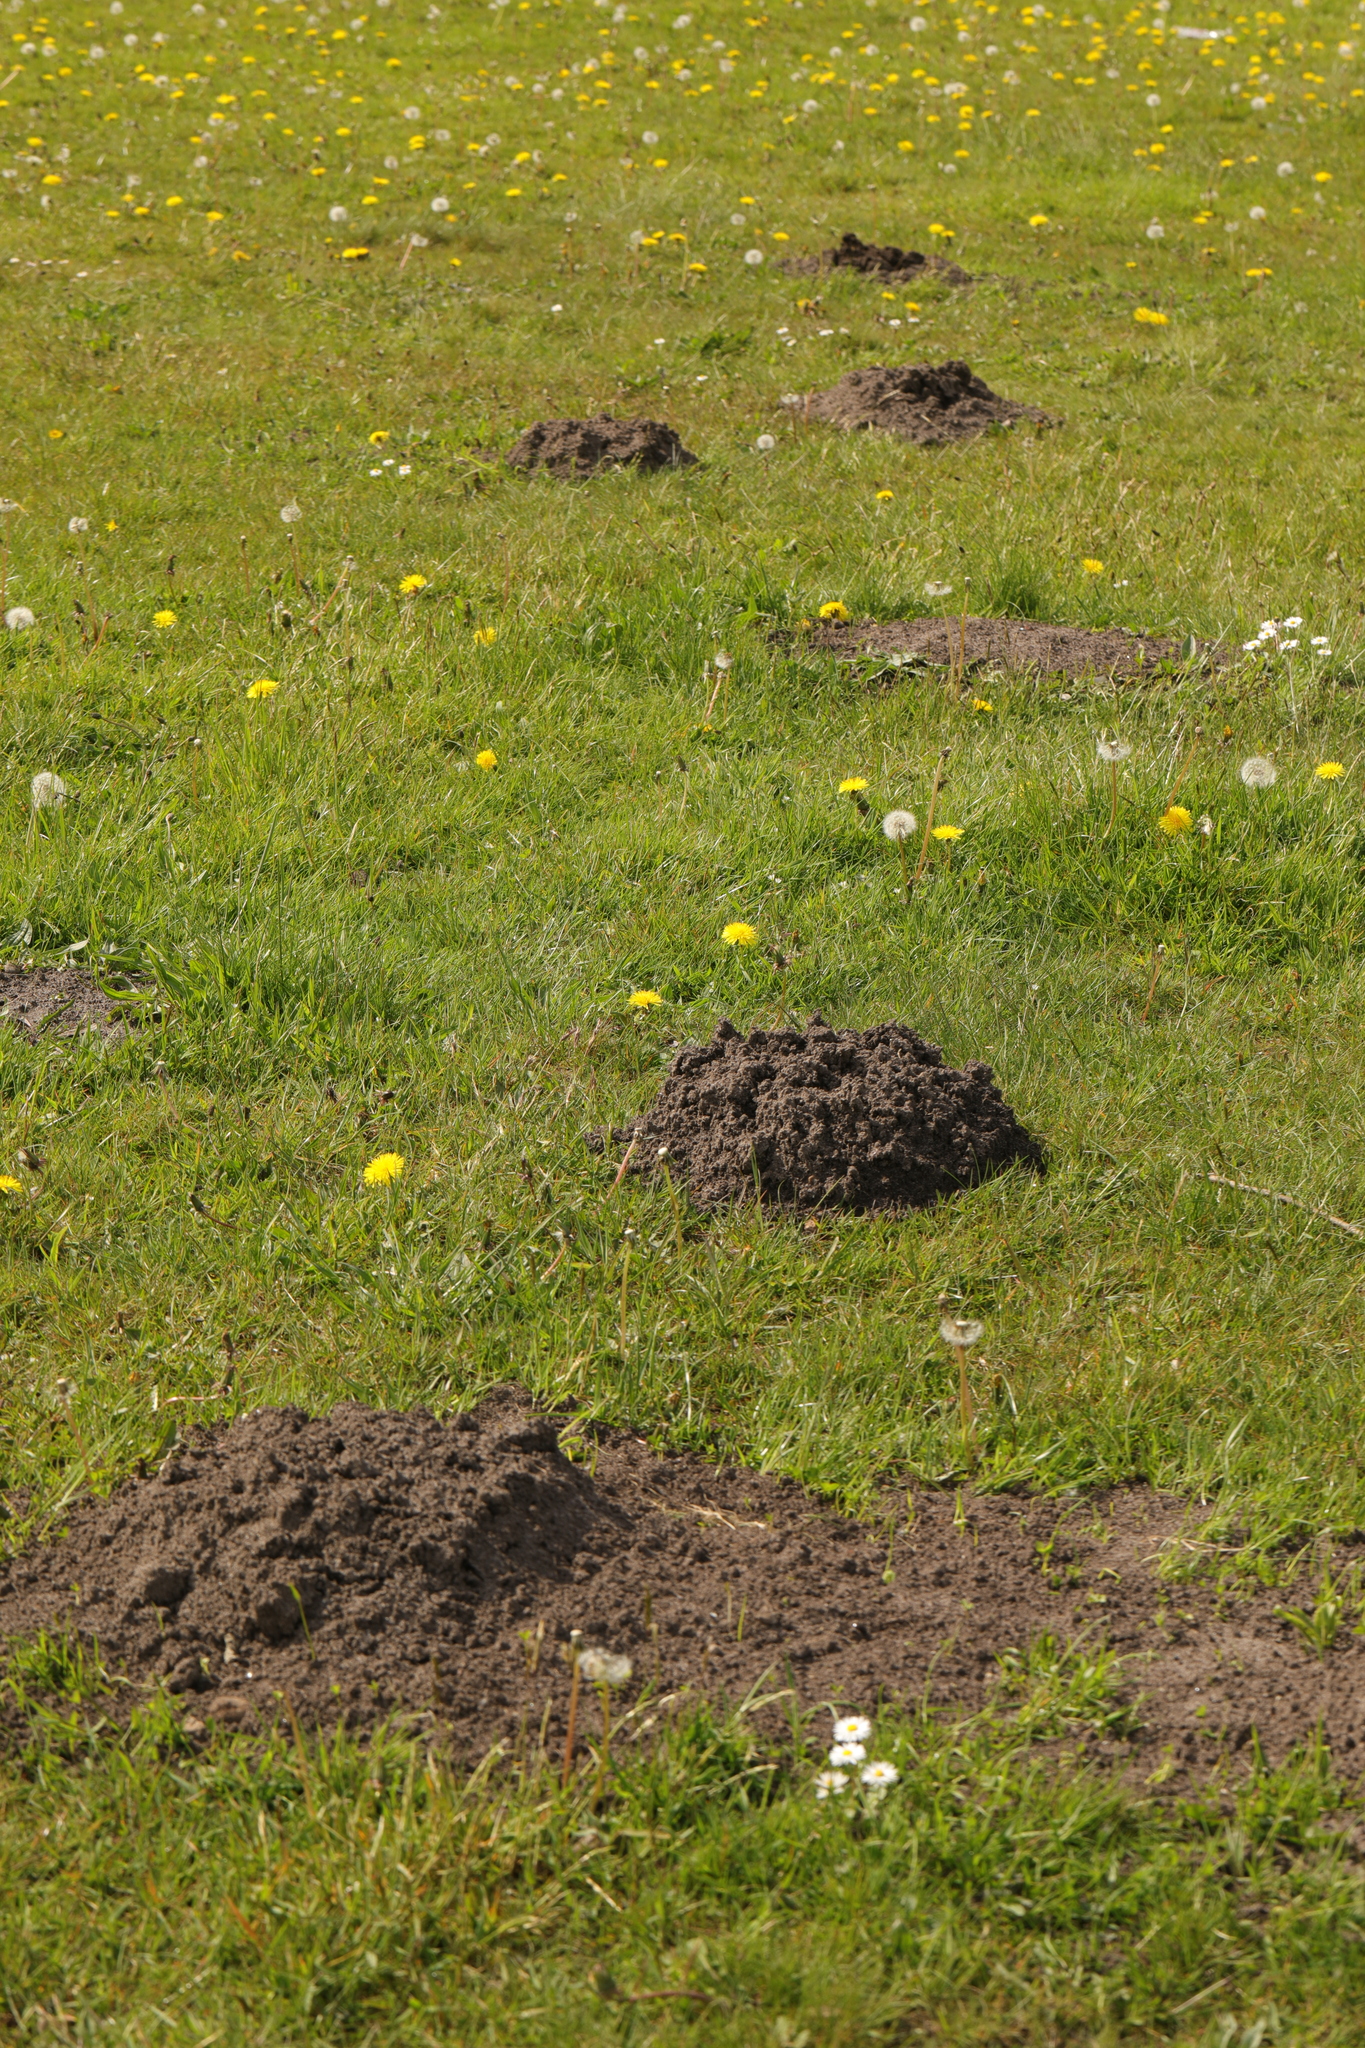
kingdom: Animalia
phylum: Chordata
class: Mammalia
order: Soricomorpha
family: Talpidae
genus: Talpa
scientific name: Talpa europaea
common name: European mole
